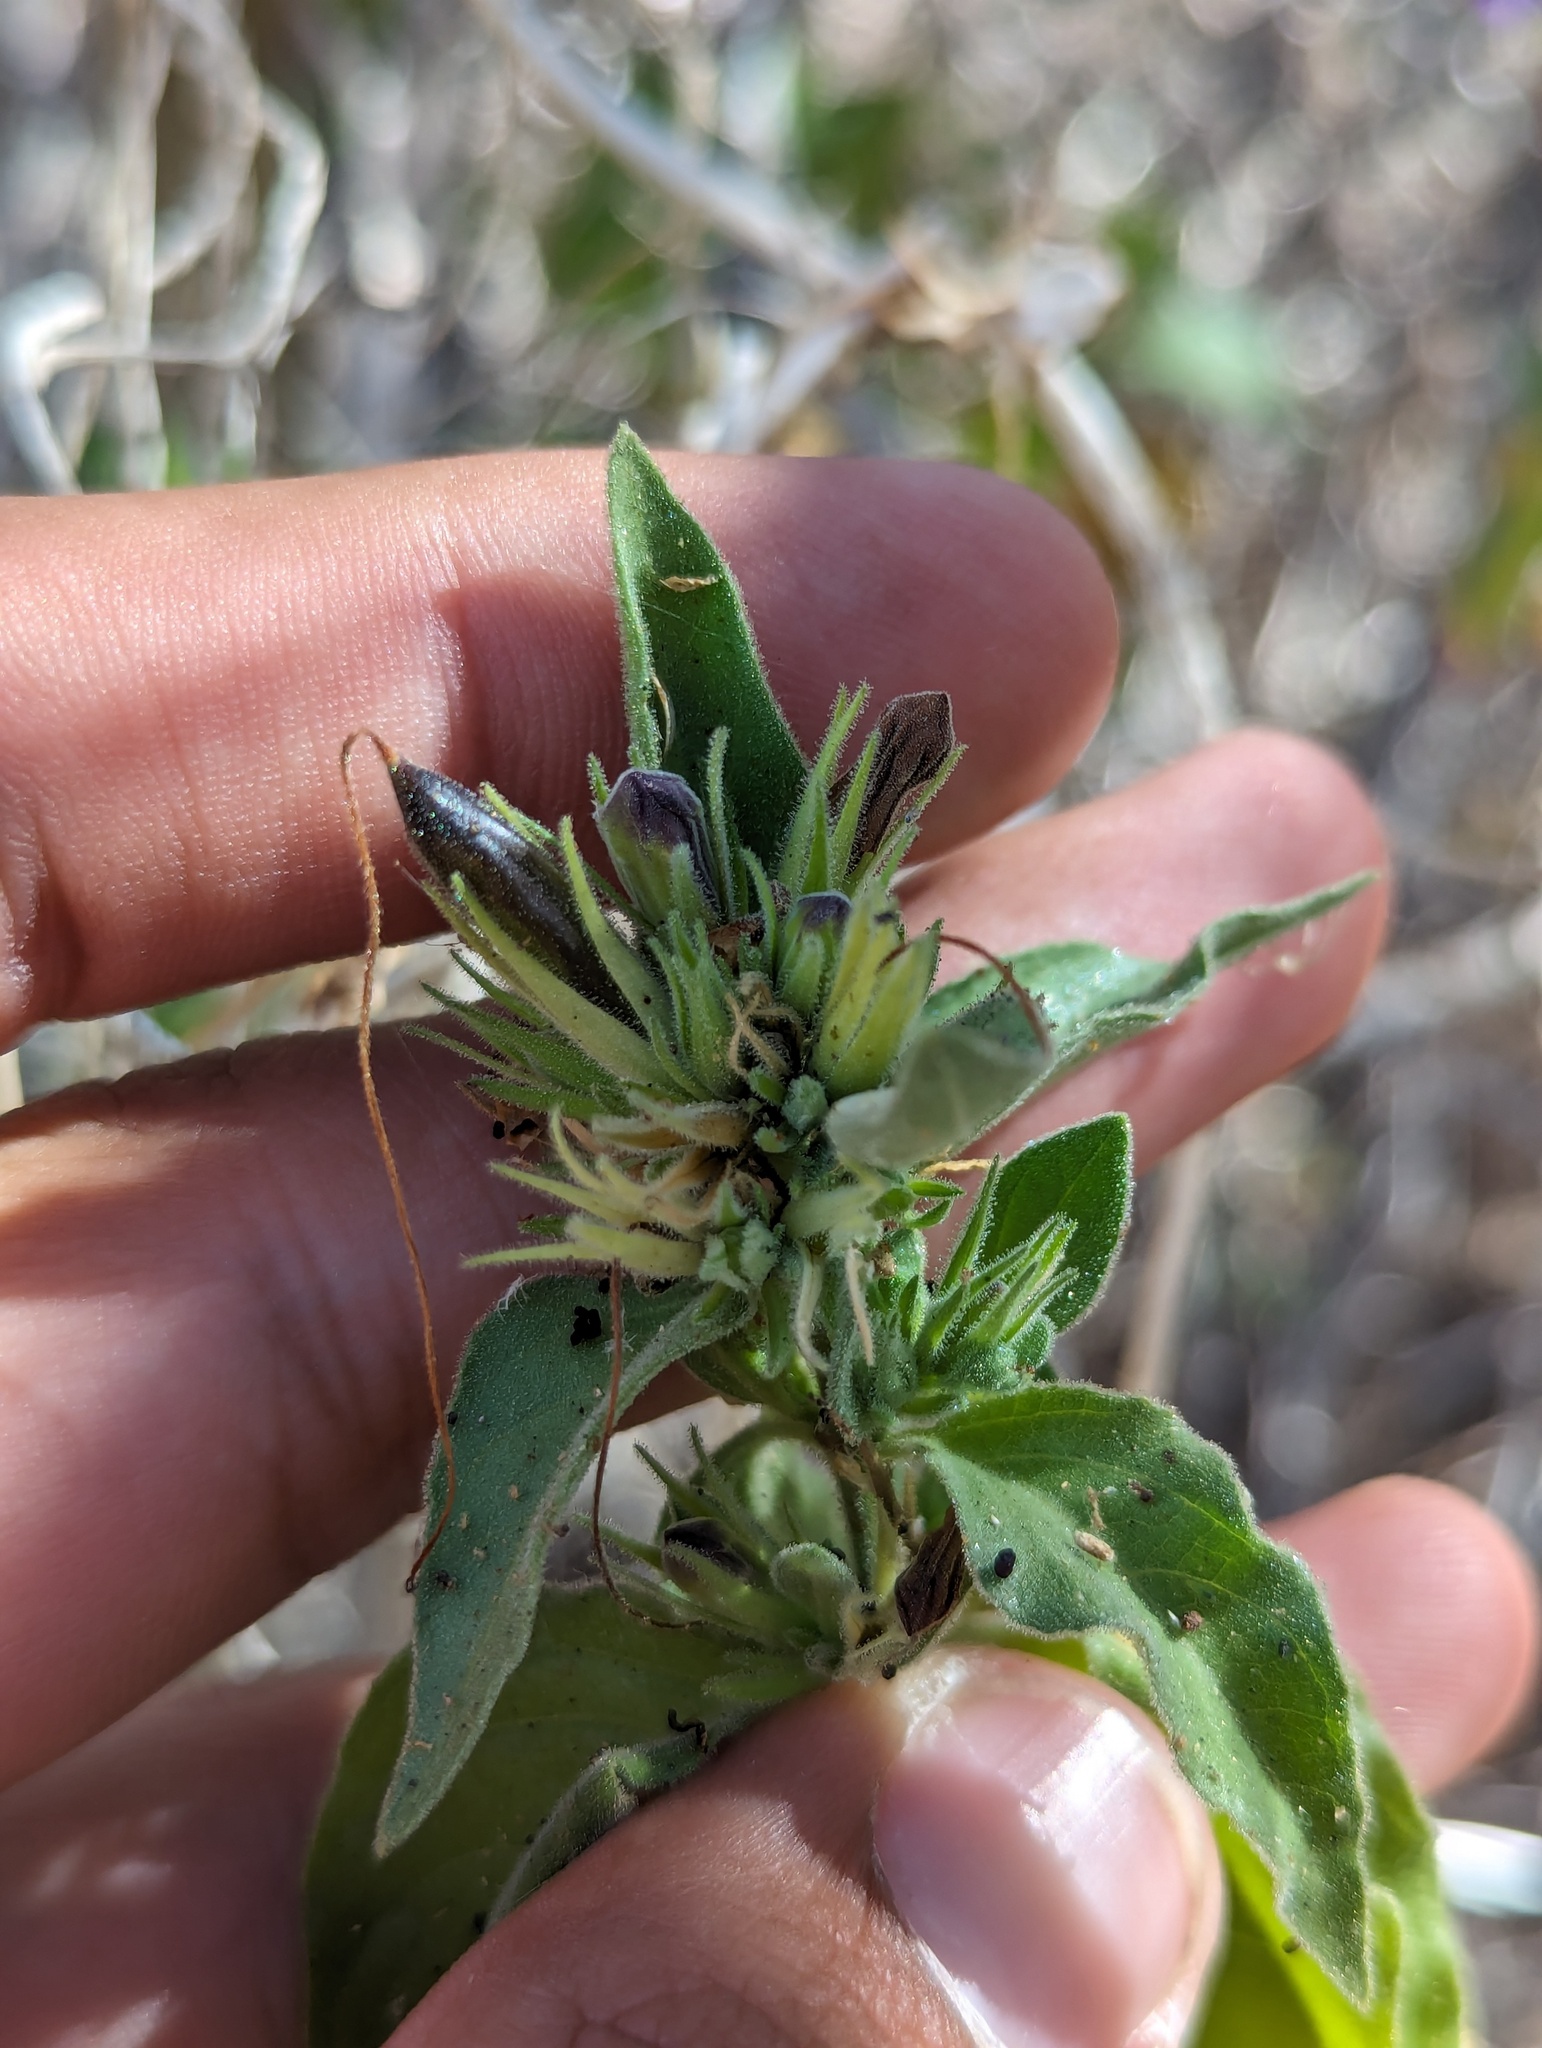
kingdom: Plantae
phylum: Tracheophyta
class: Magnoliopsida
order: Lamiales
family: Acanthaceae
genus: Ruellia
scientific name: Ruellia californica
